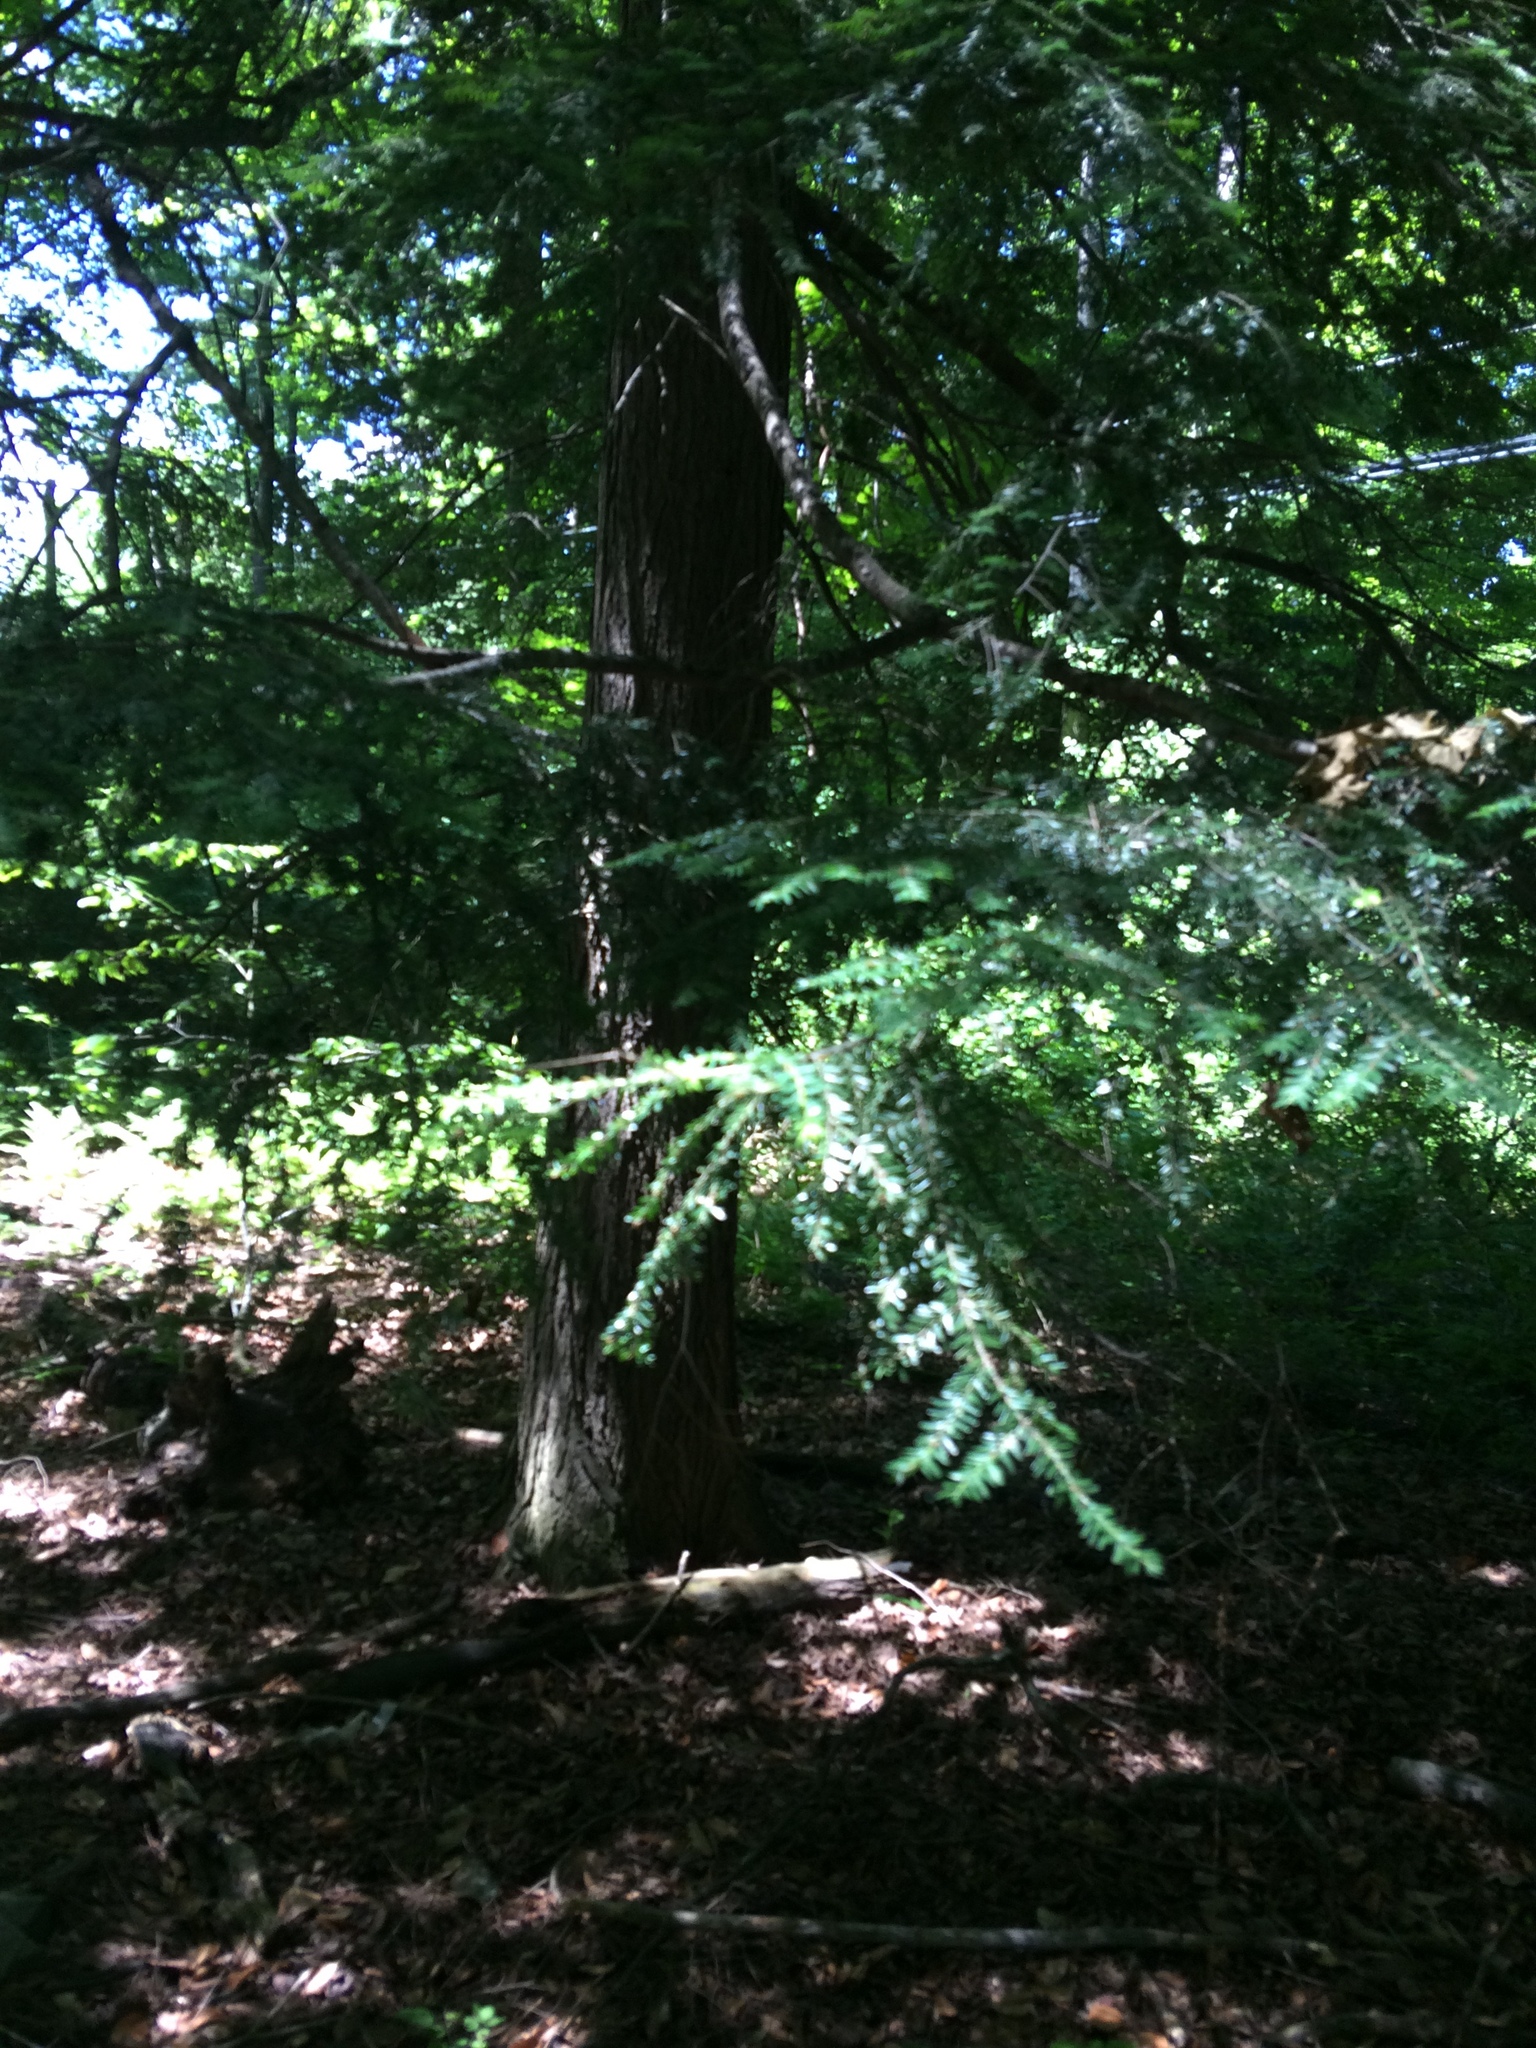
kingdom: Plantae
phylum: Tracheophyta
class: Pinopsida
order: Pinales
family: Pinaceae
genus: Tsuga
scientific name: Tsuga canadensis
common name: Eastern hemlock
